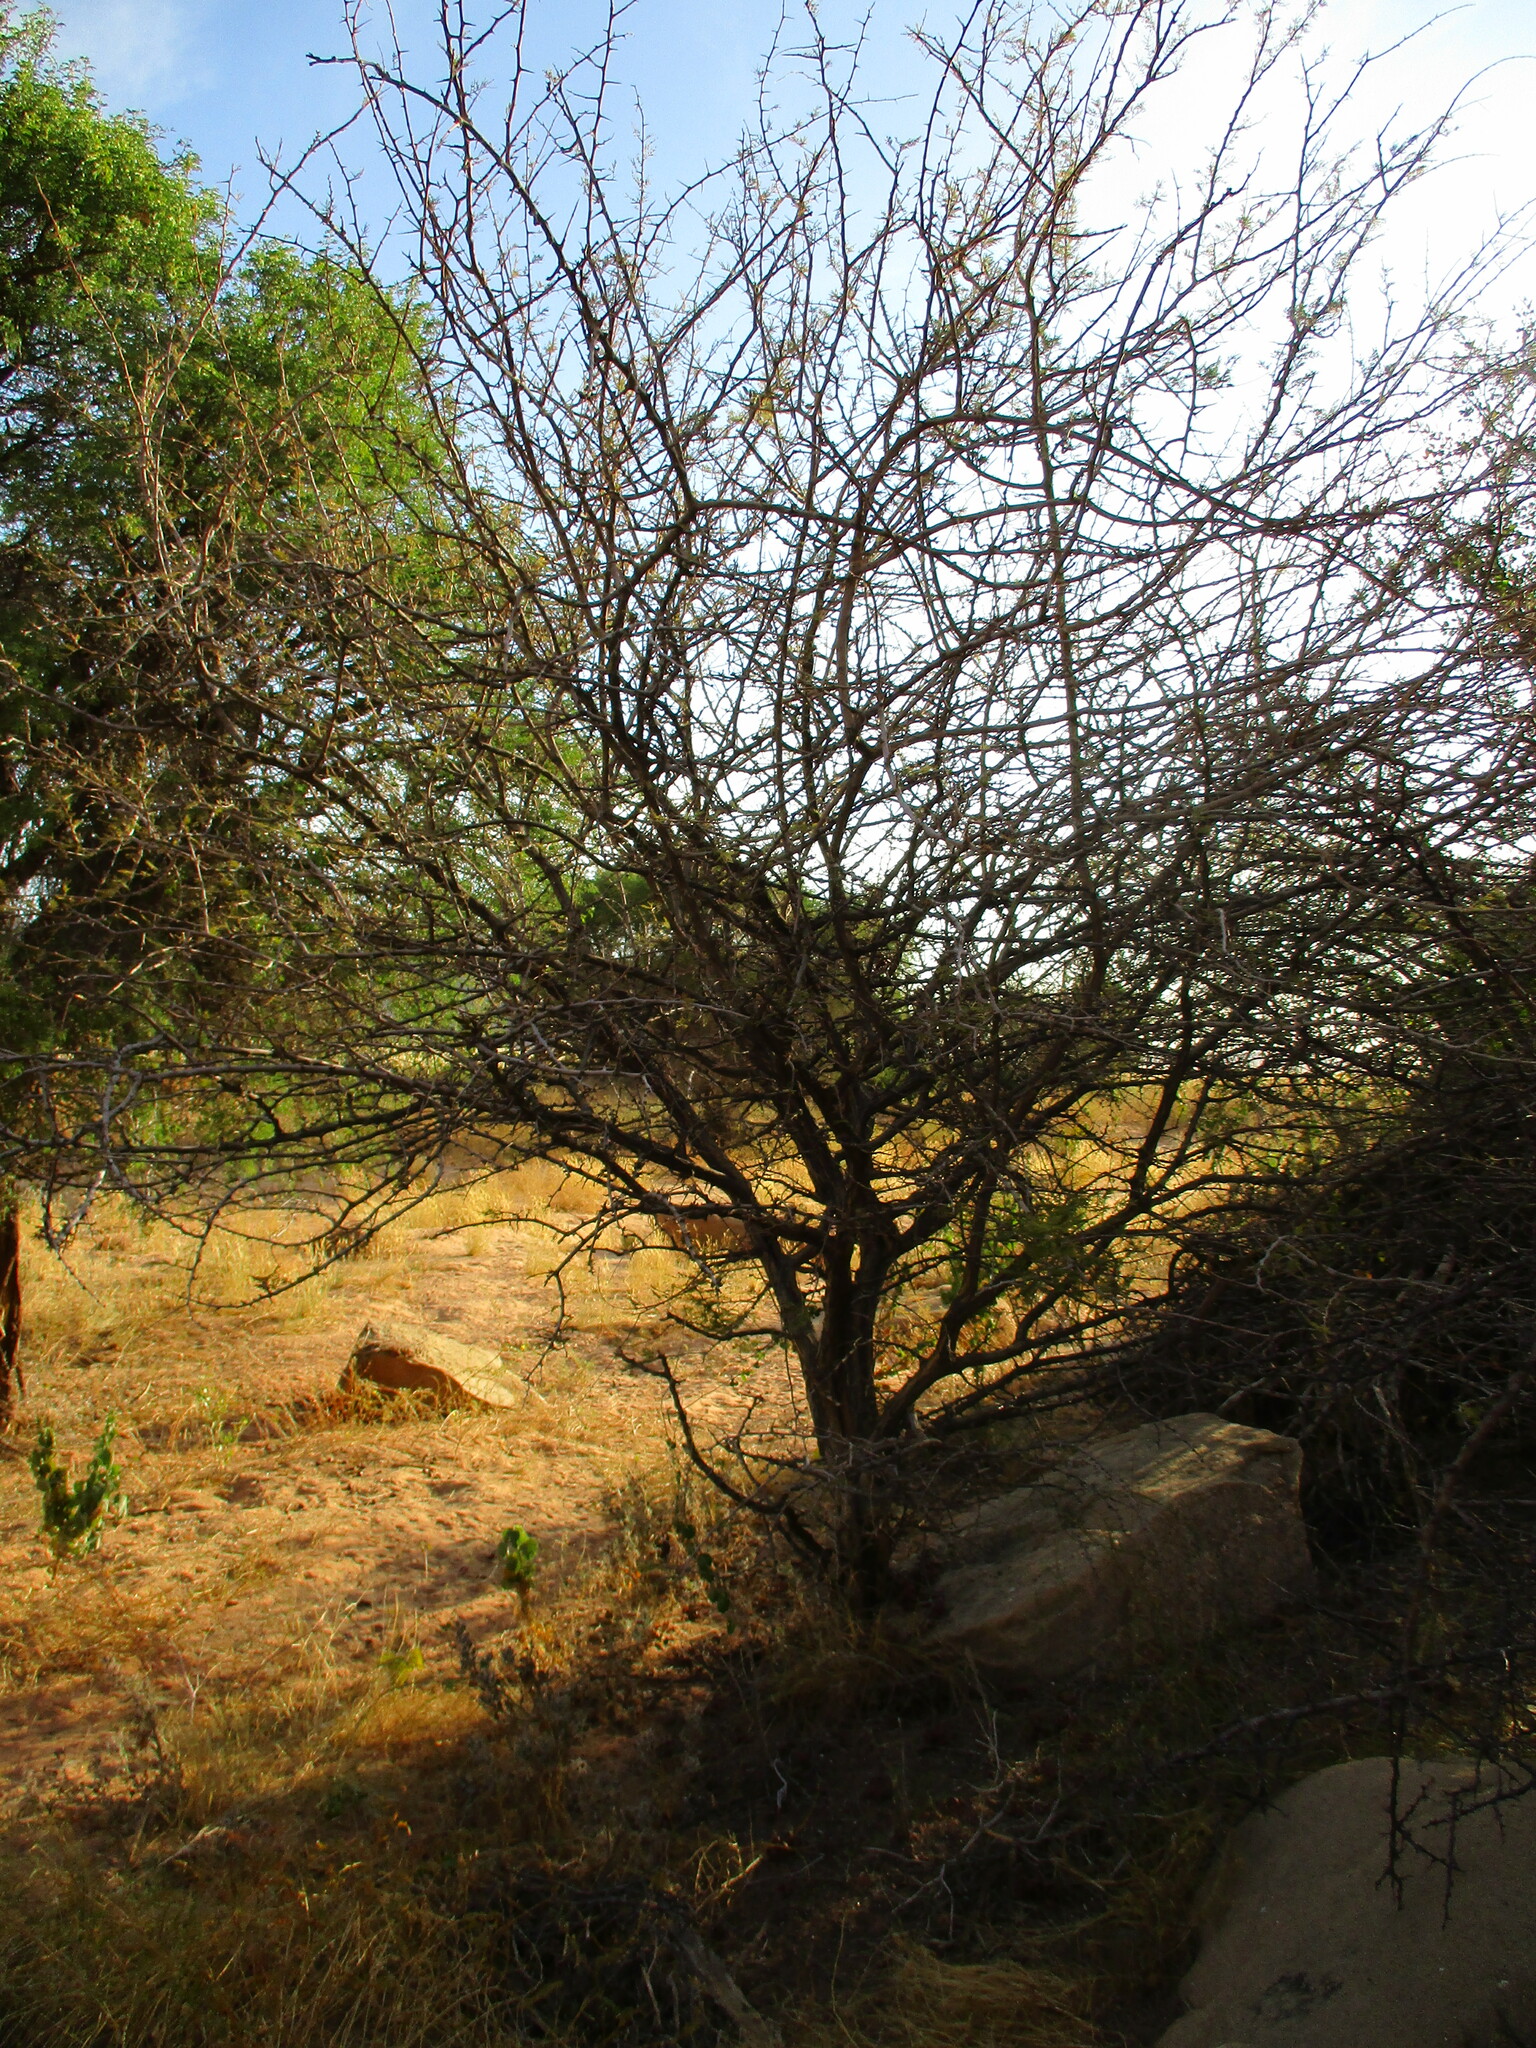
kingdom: Plantae
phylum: Tracheophyta
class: Magnoliopsida
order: Fabales
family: Fabaceae
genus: Dichrostachys
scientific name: Dichrostachys cinerea
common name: Sicklebush
